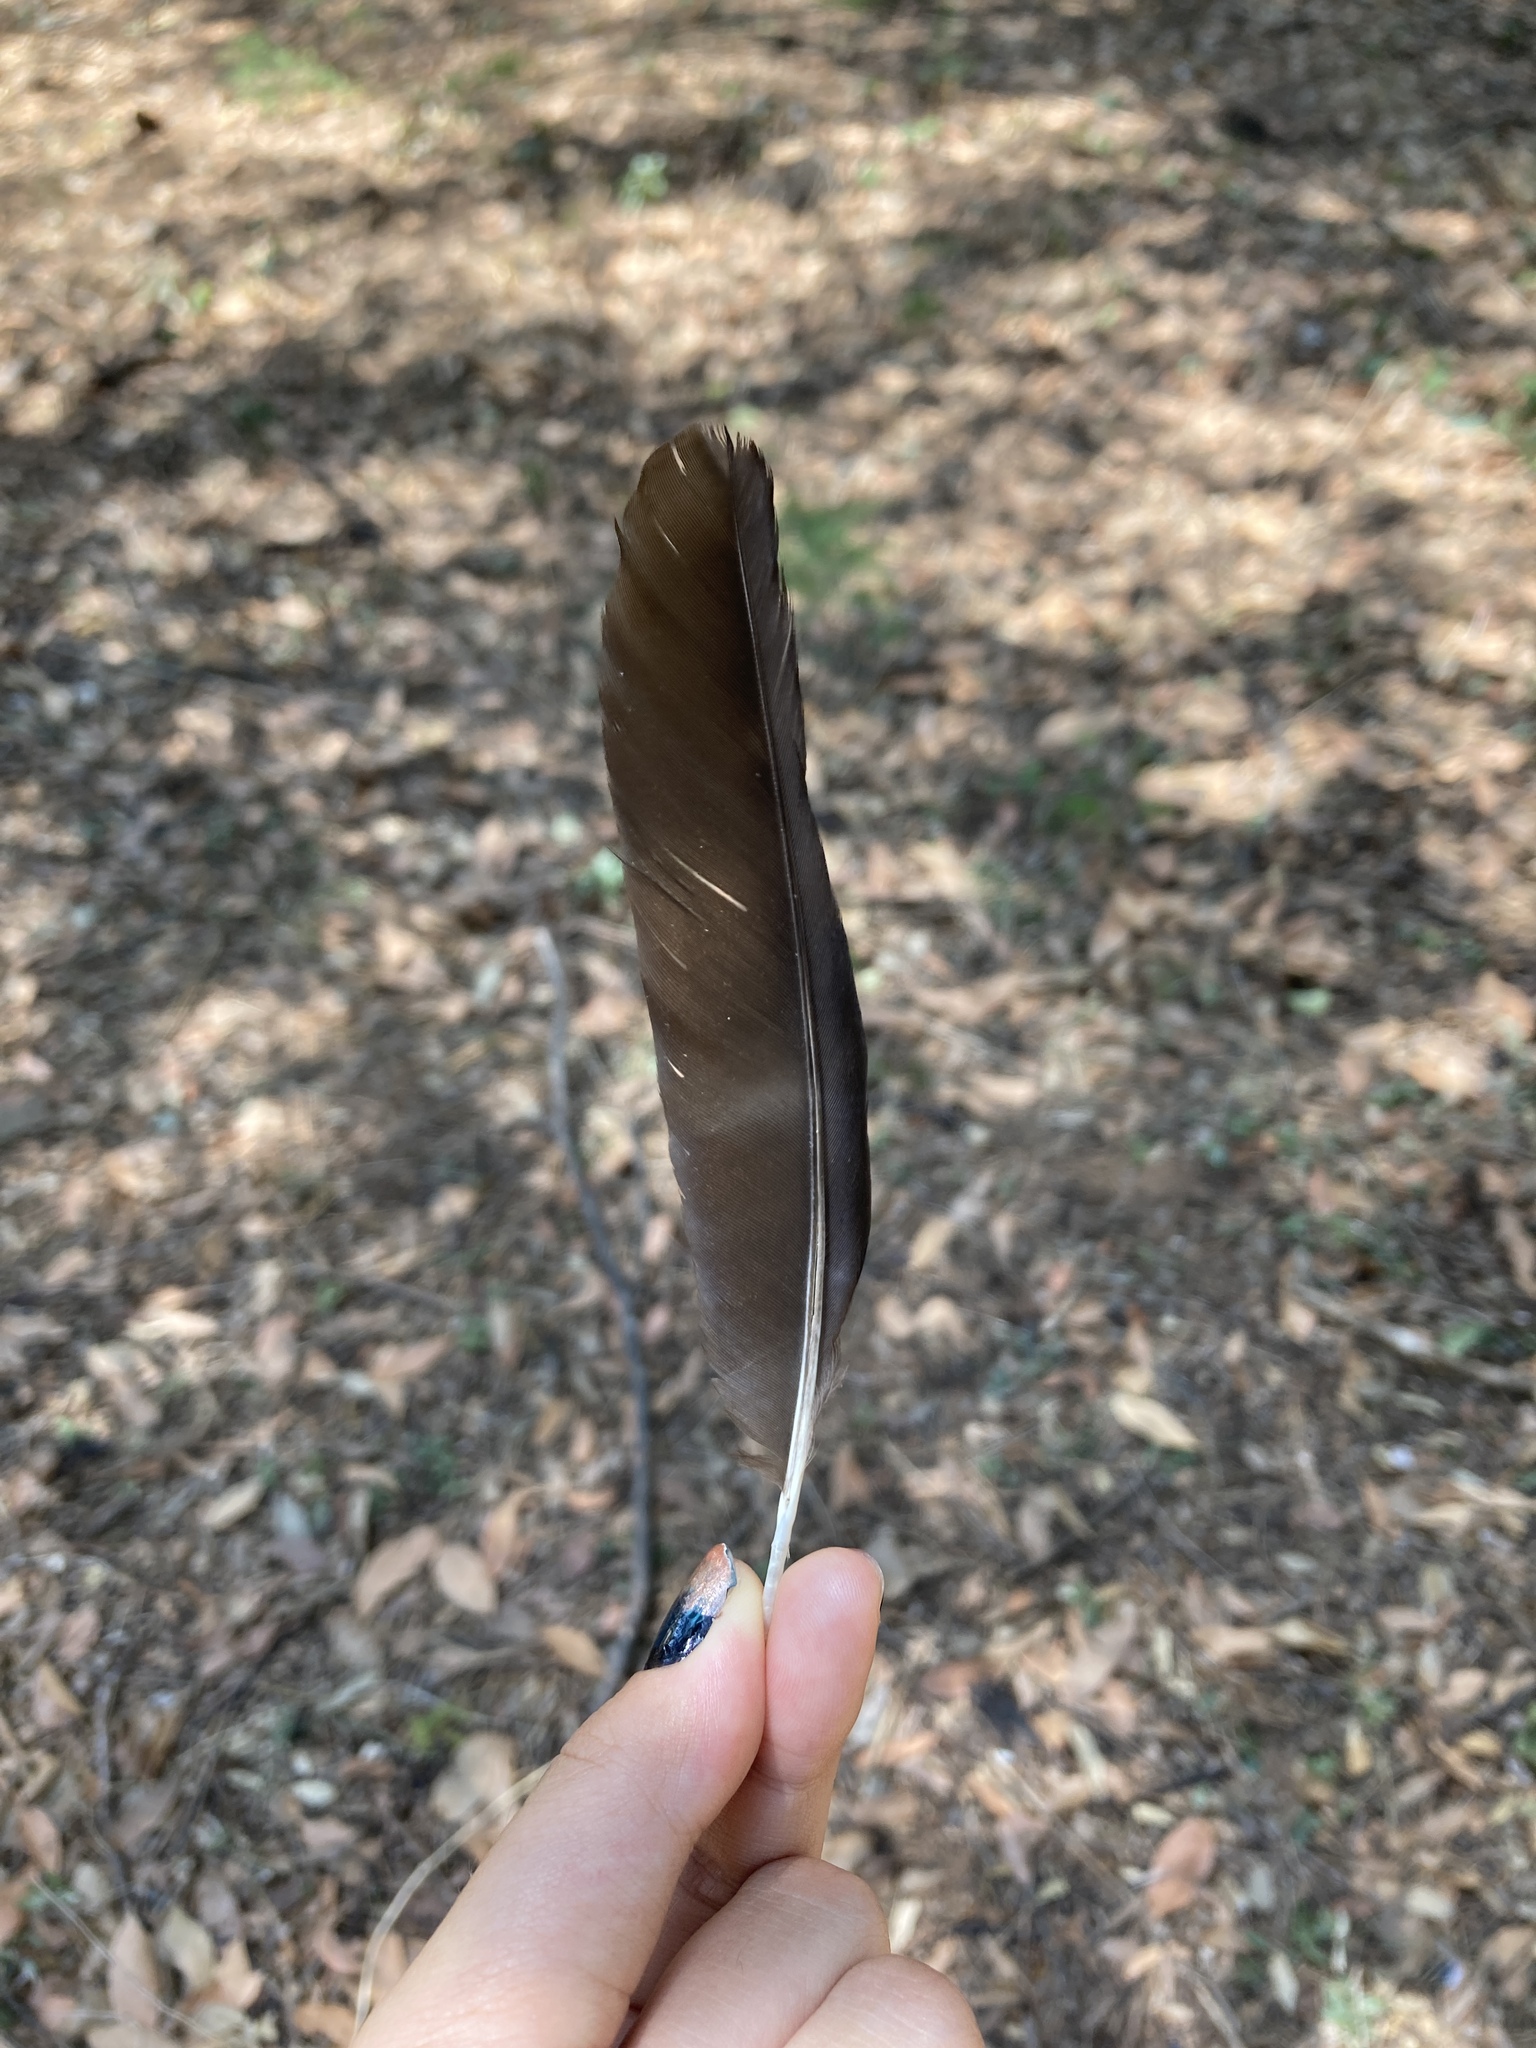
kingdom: Animalia
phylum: Chordata
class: Aves
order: Passeriformes
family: Corvidae
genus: Pica
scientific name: Pica pica
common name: Eurasian magpie
